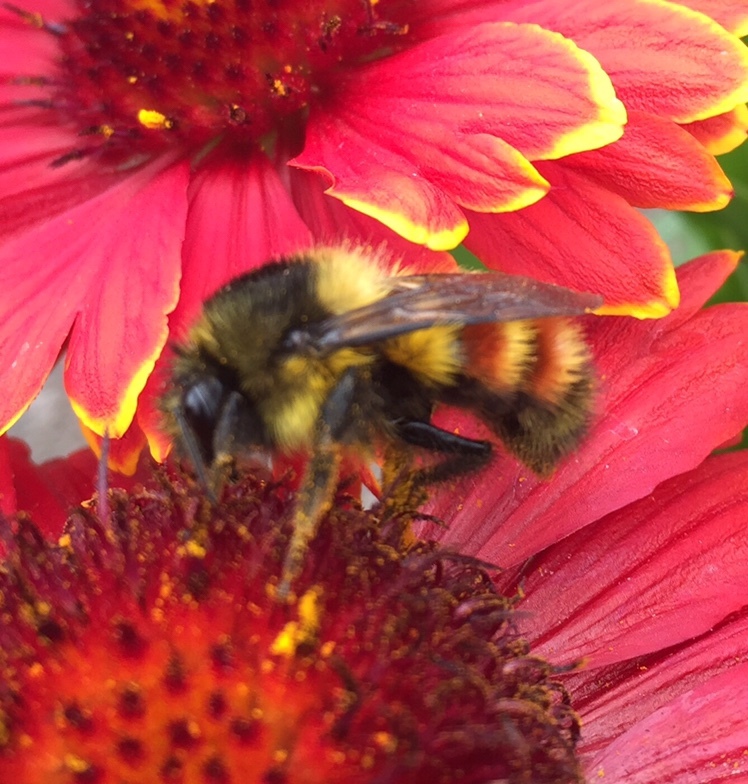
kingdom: Animalia
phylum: Arthropoda
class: Insecta
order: Hymenoptera
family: Apidae
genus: Bombus
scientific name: Bombus melanopygus
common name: Black tail bumble bee
